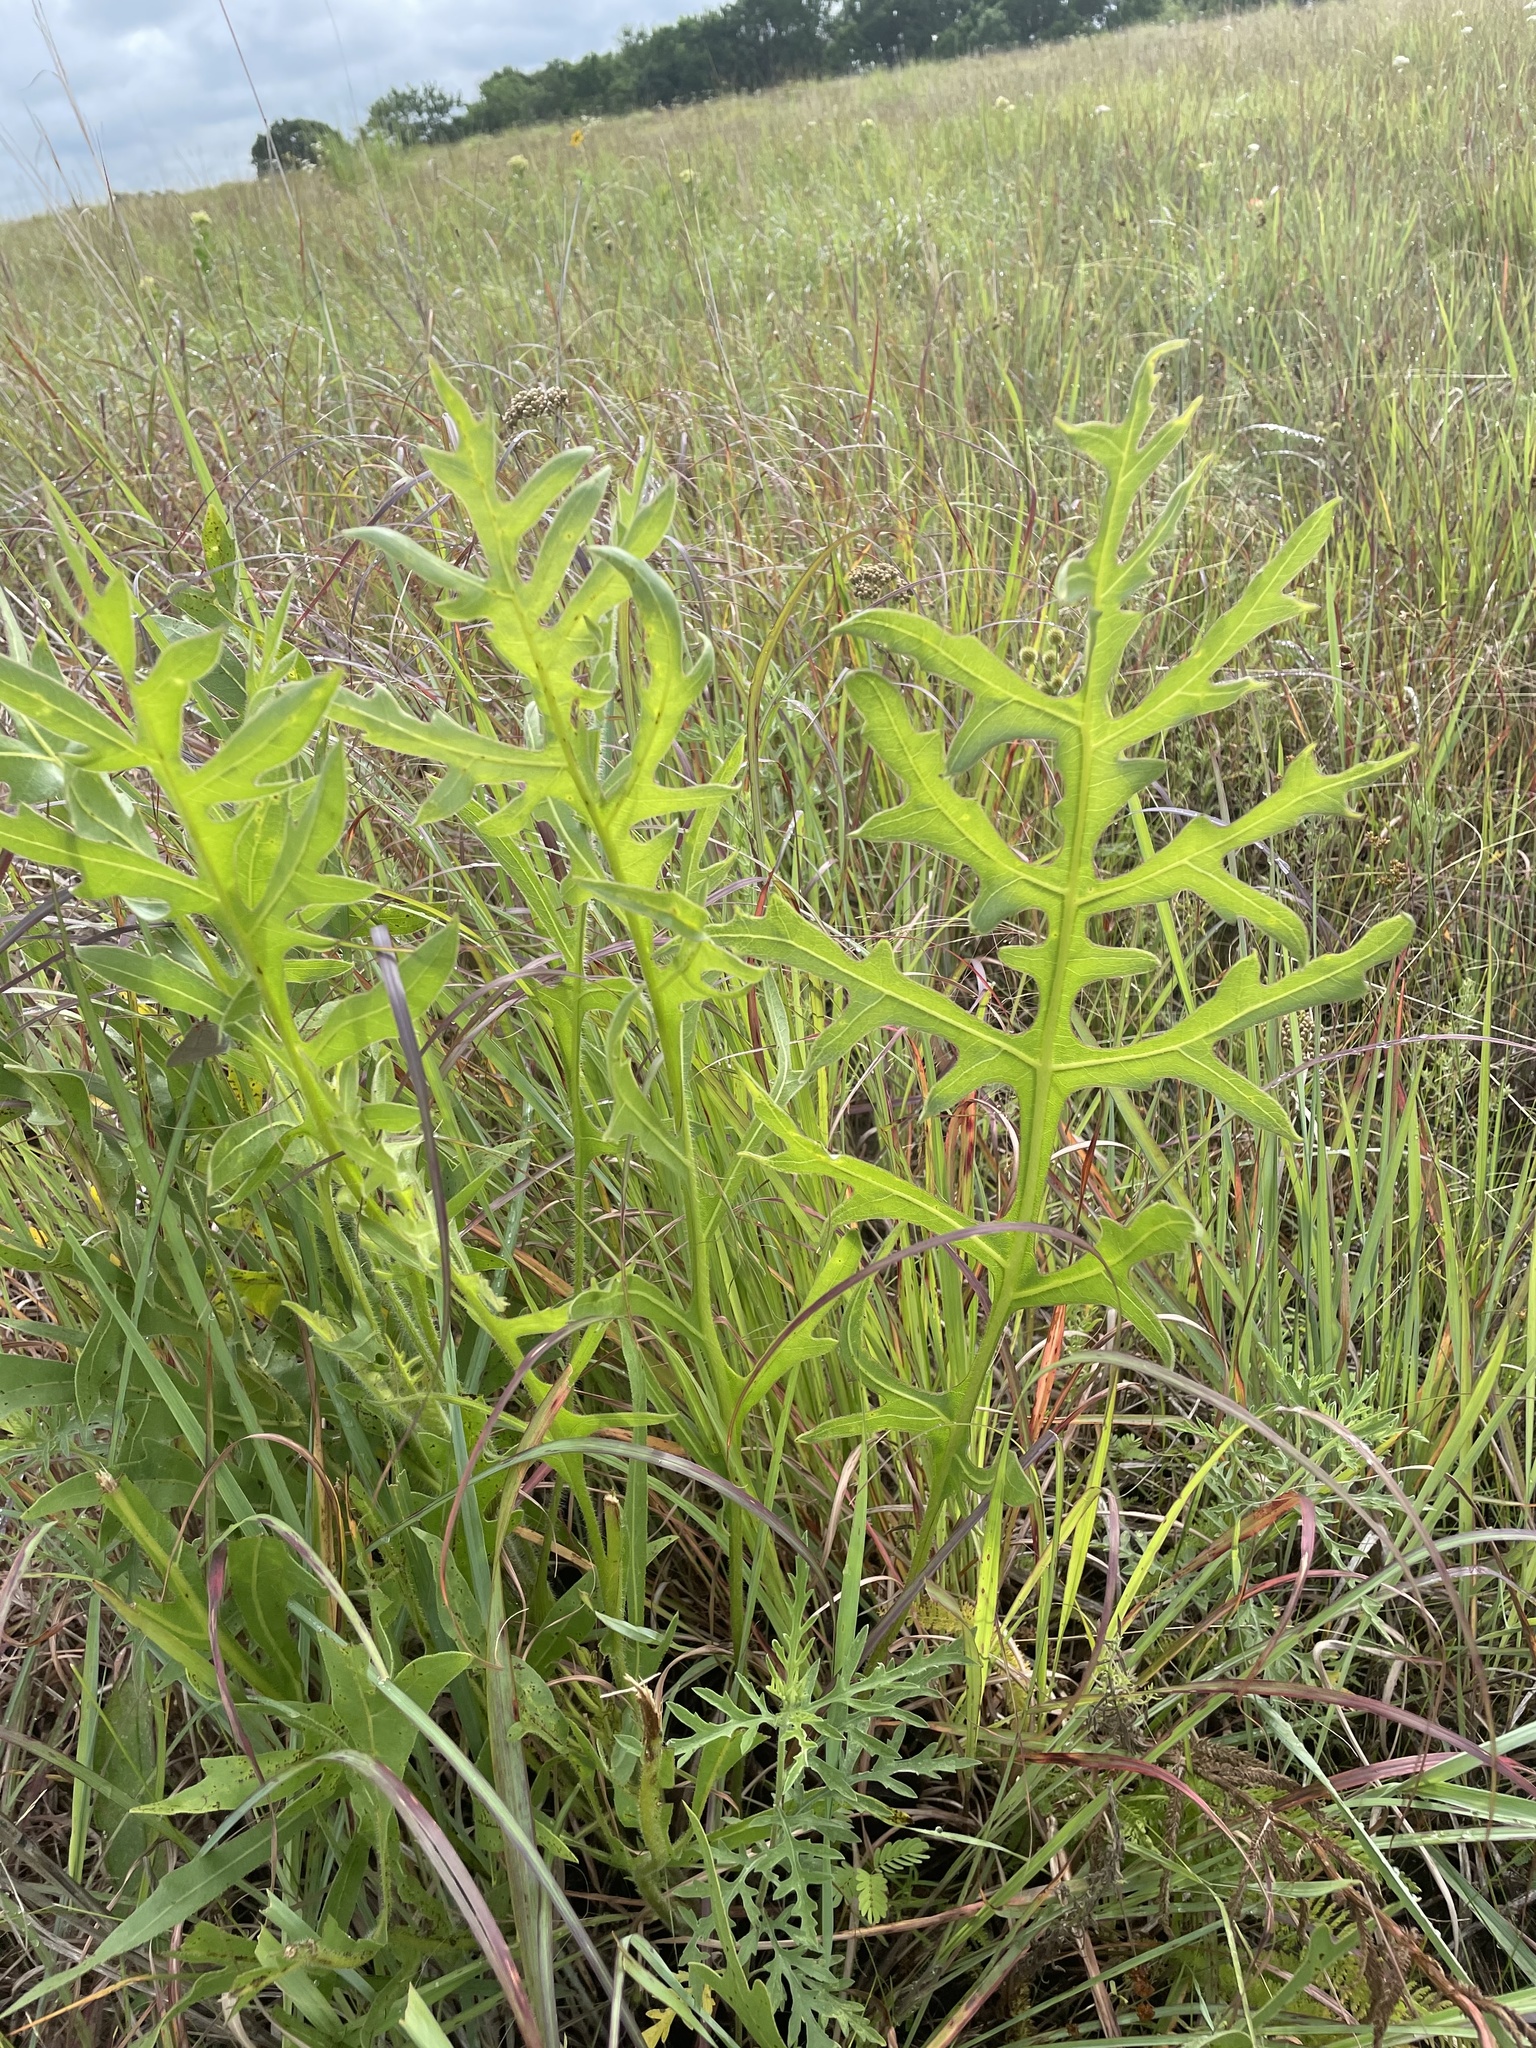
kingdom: Plantae
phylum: Tracheophyta
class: Magnoliopsida
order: Asterales
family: Asteraceae
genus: Silphium
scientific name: Silphium laciniatum
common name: Polarplant
